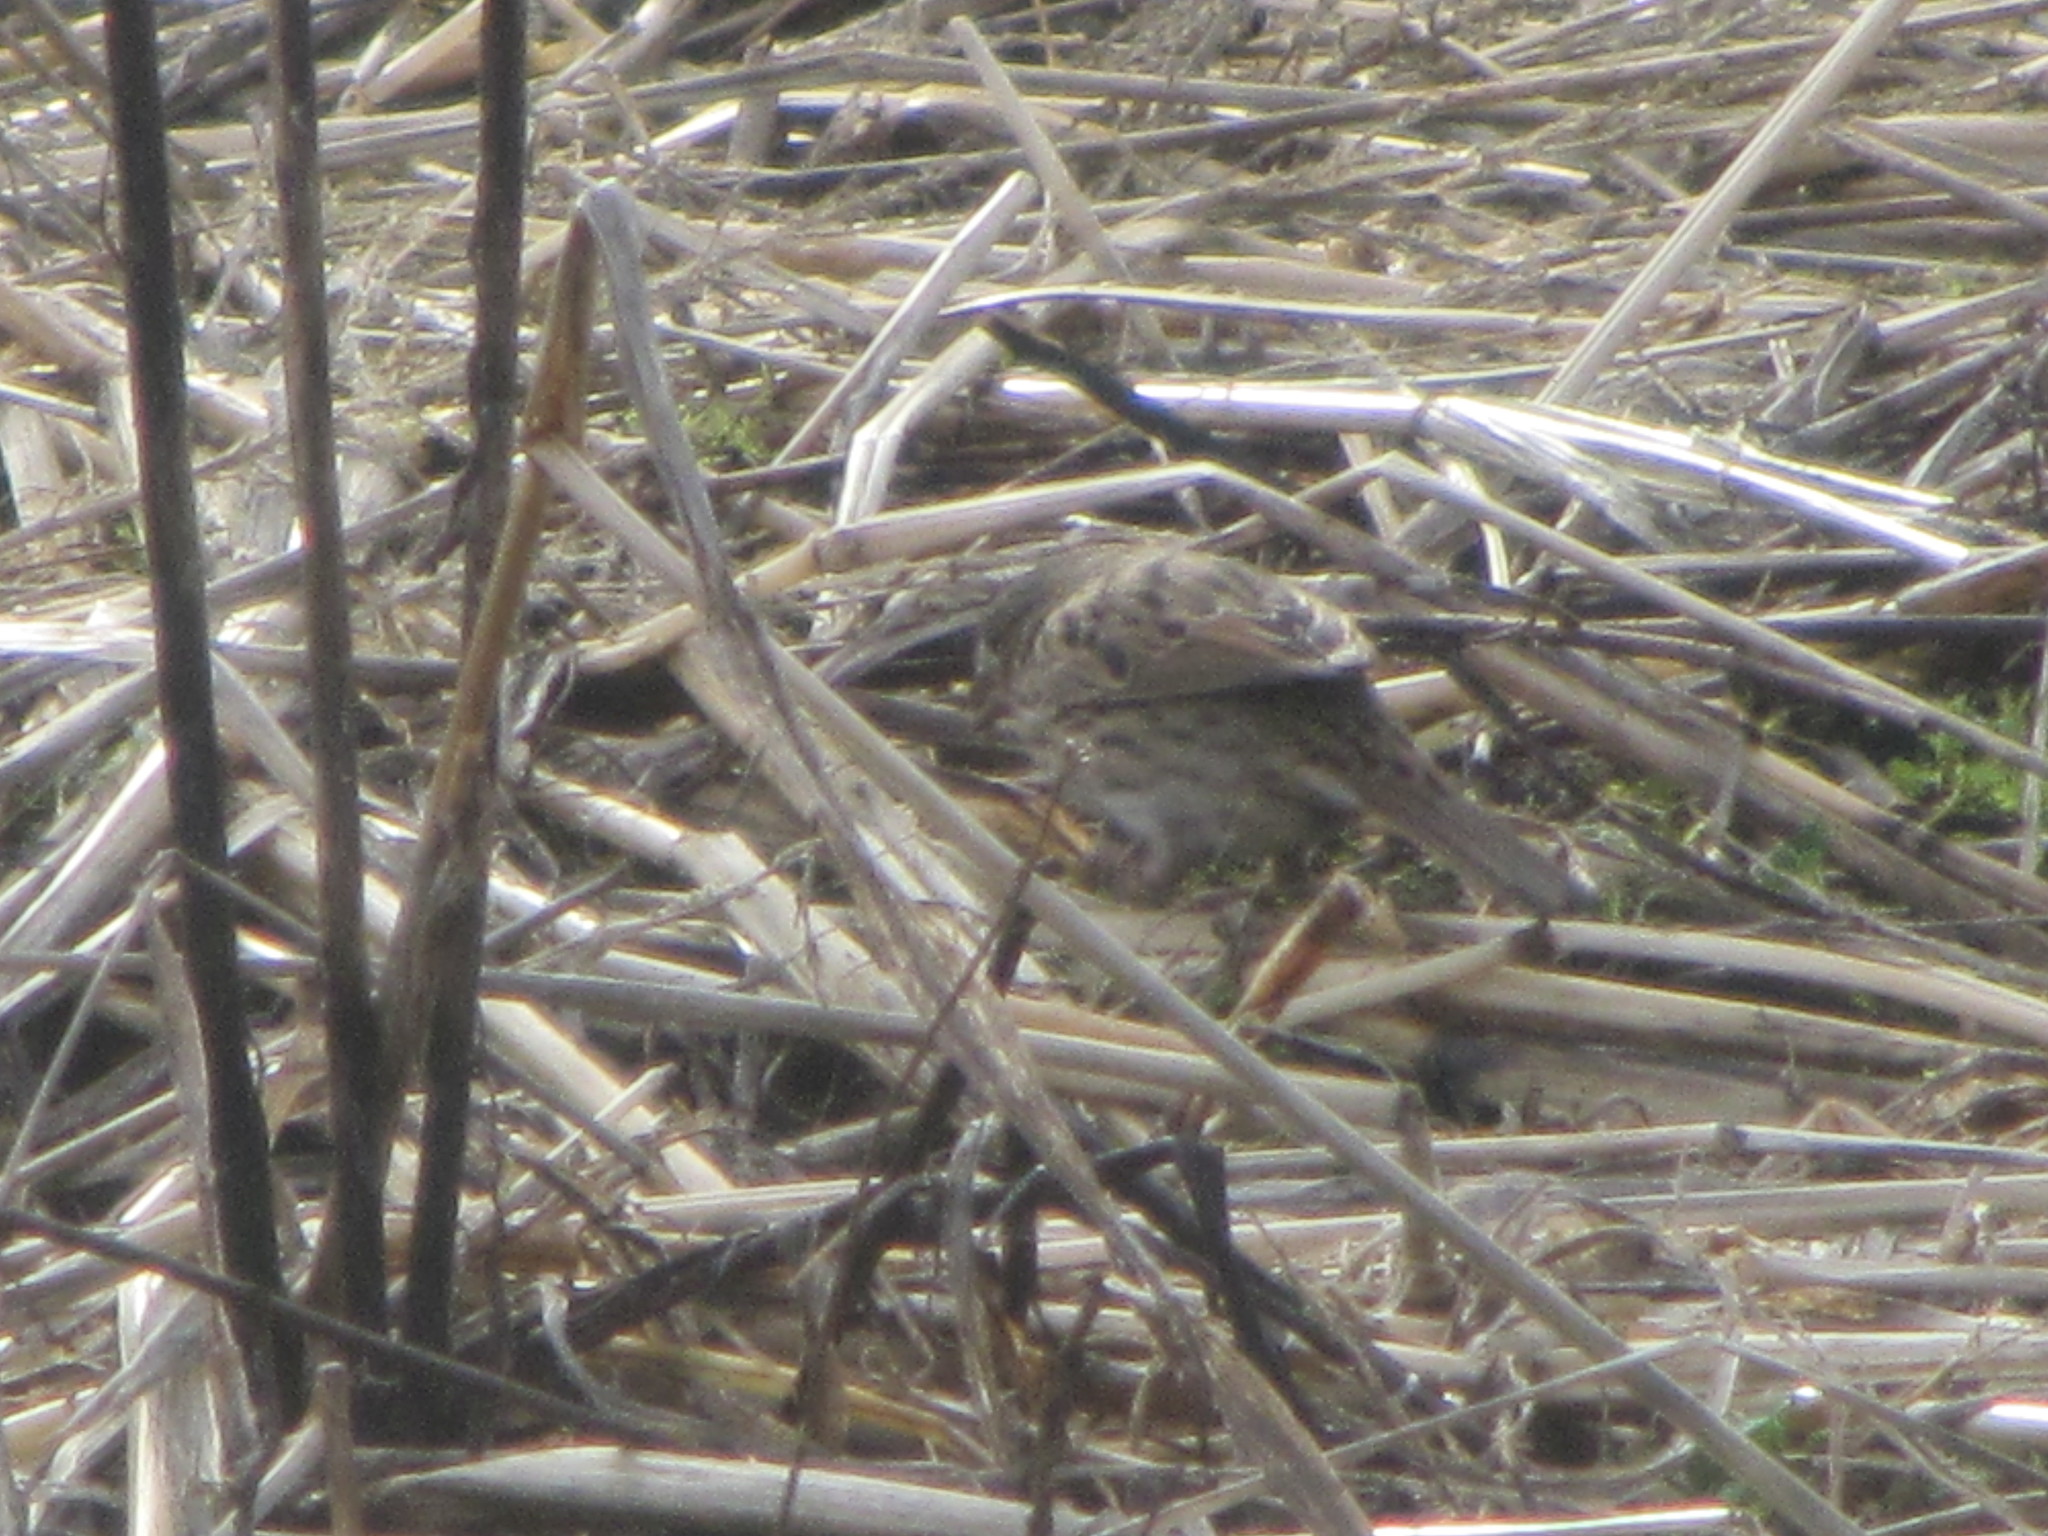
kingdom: Animalia
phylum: Chordata
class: Aves
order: Passeriformes
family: Passerellidae
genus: Melospiza
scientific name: Melospiza lincolnii
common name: Lincoln's sparrow
